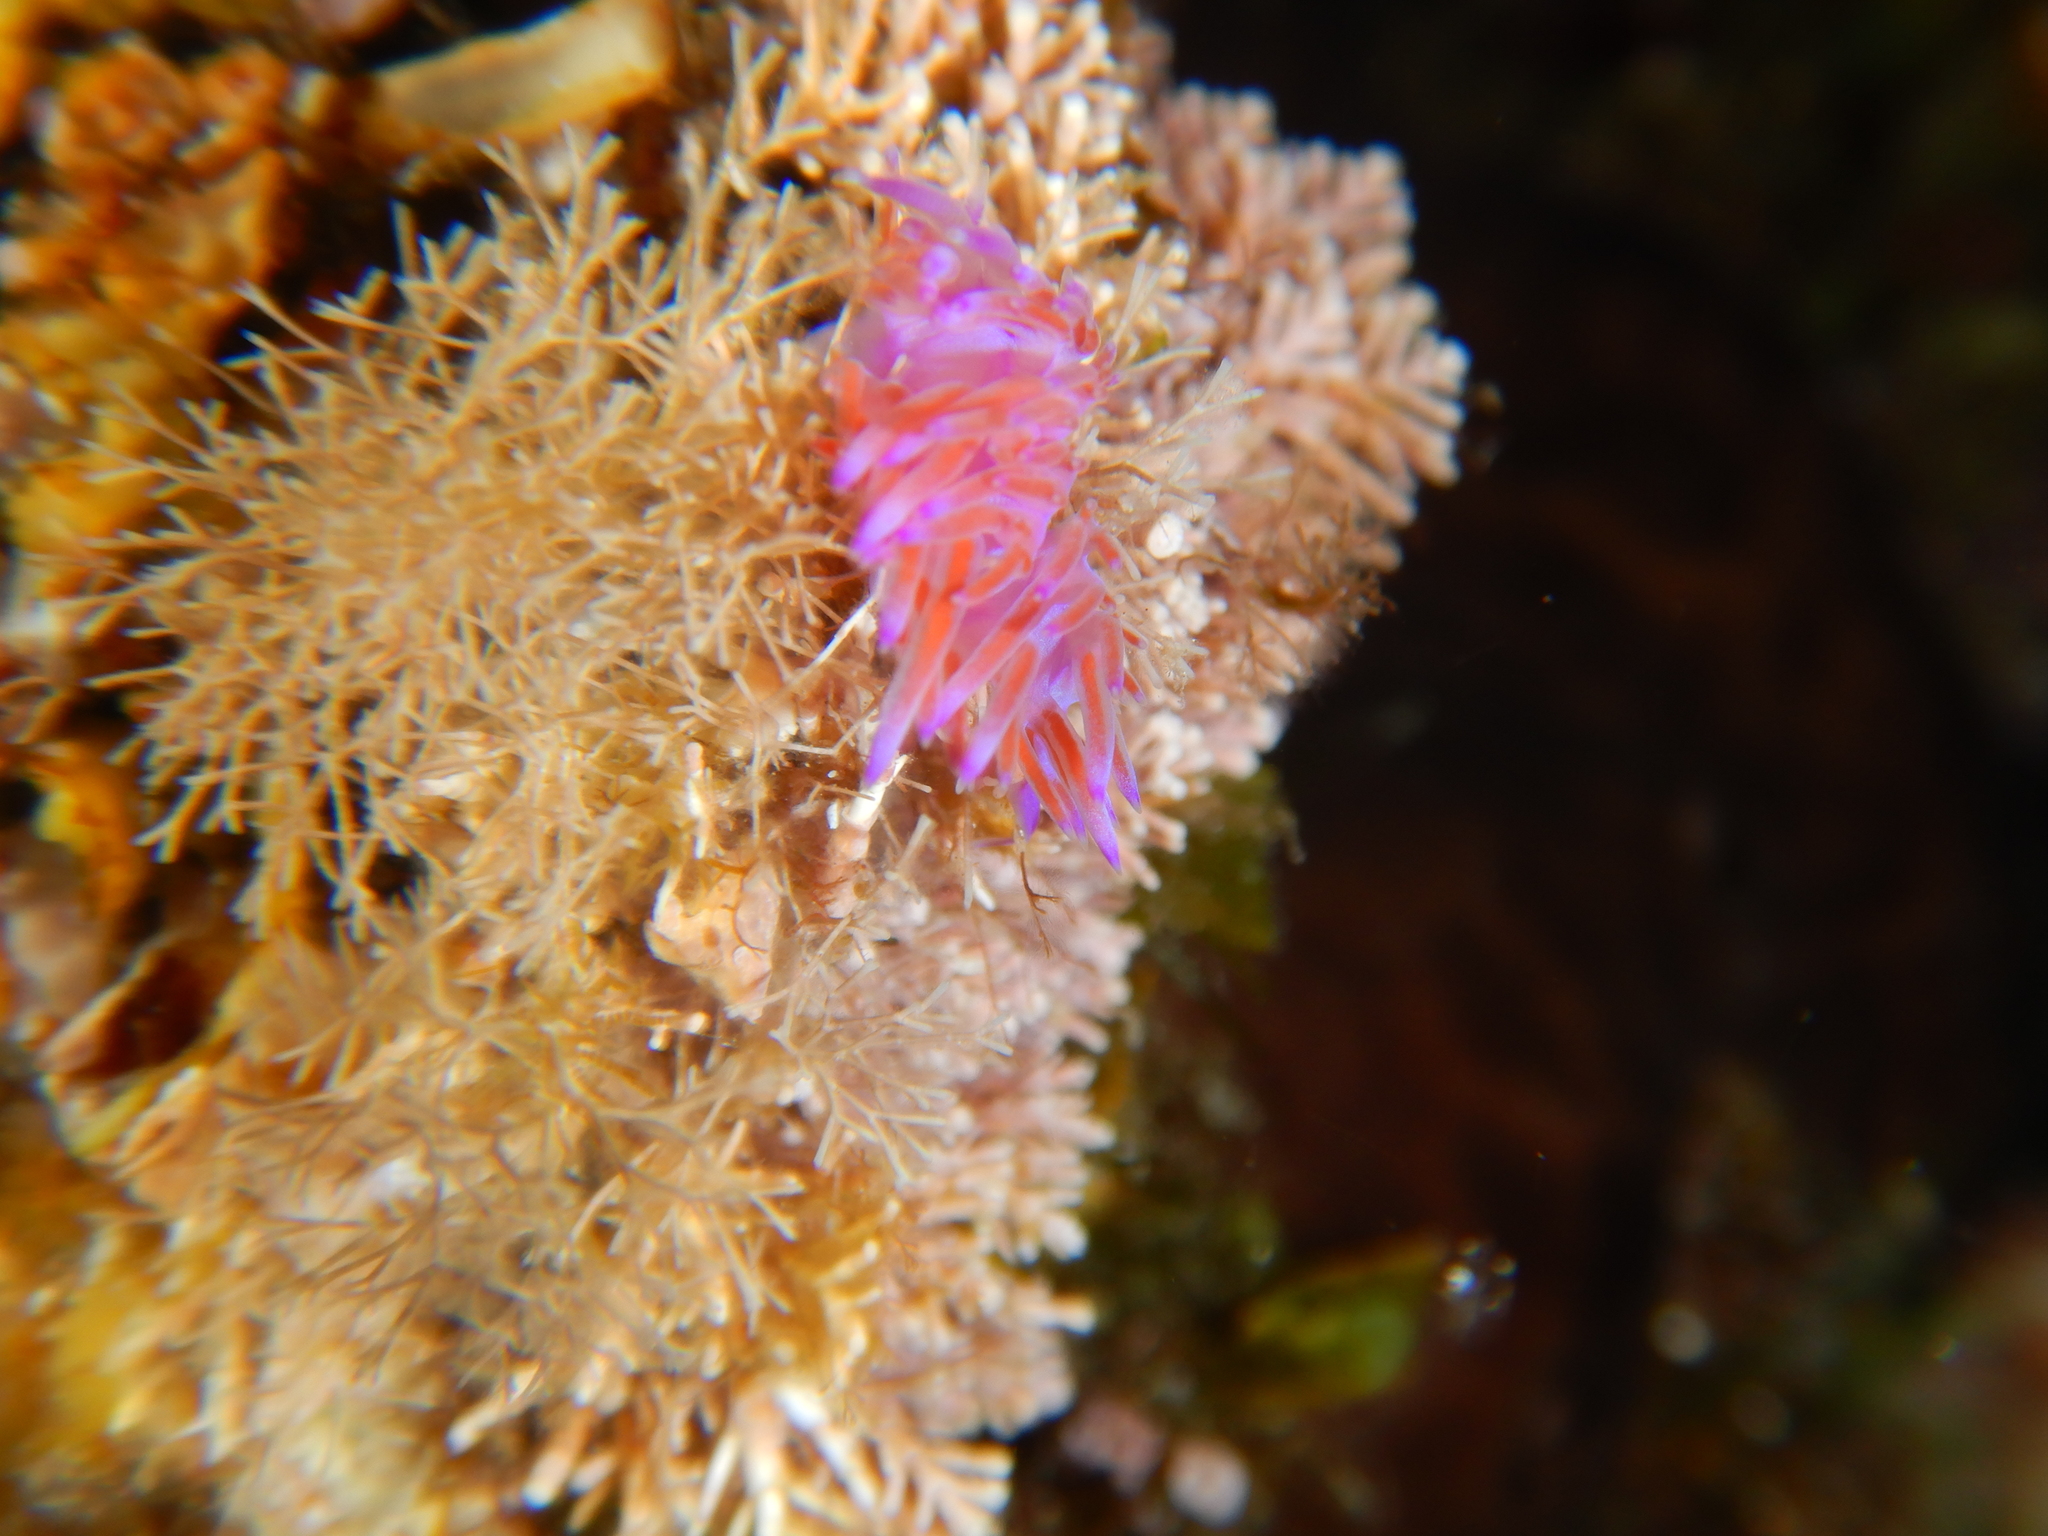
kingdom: Animalia
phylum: Mollusca
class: Gastropoda
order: Nudibranchia
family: Flabellinidae
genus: Flabellina
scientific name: Flabellina affinis
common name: Mediterranean violet aeolid
